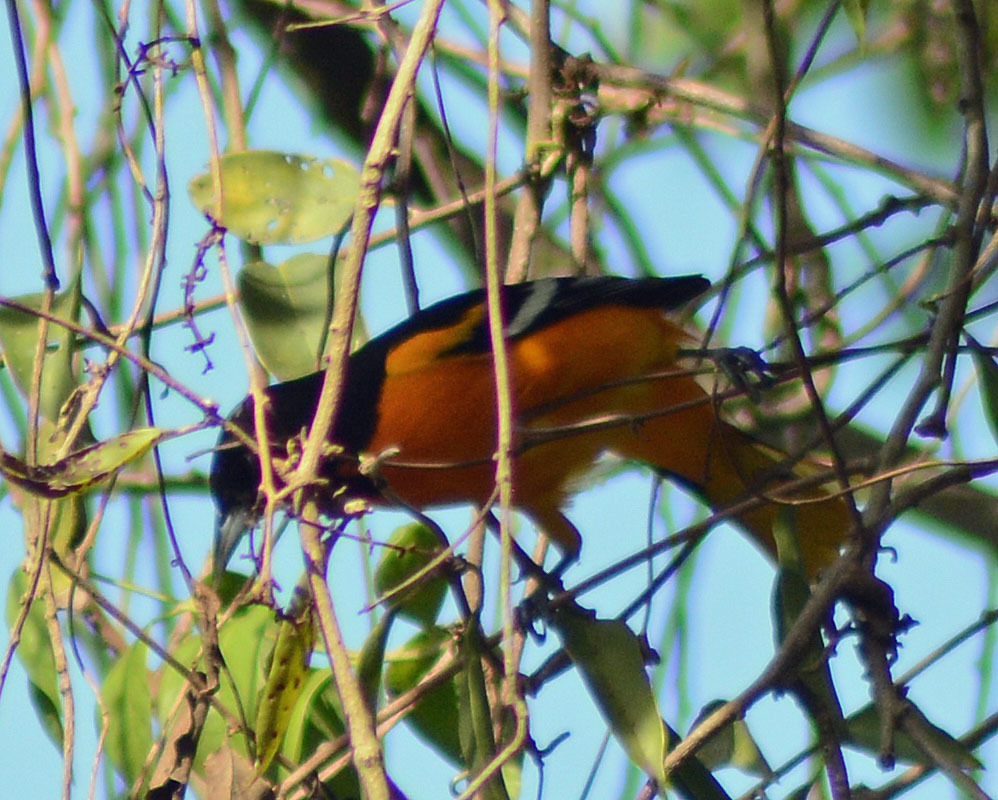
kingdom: Animalia
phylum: Chordata
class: Aves
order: Passeriformes
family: Icteridae
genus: Icterus
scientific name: Icterus galbula
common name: Baltimore oriole
